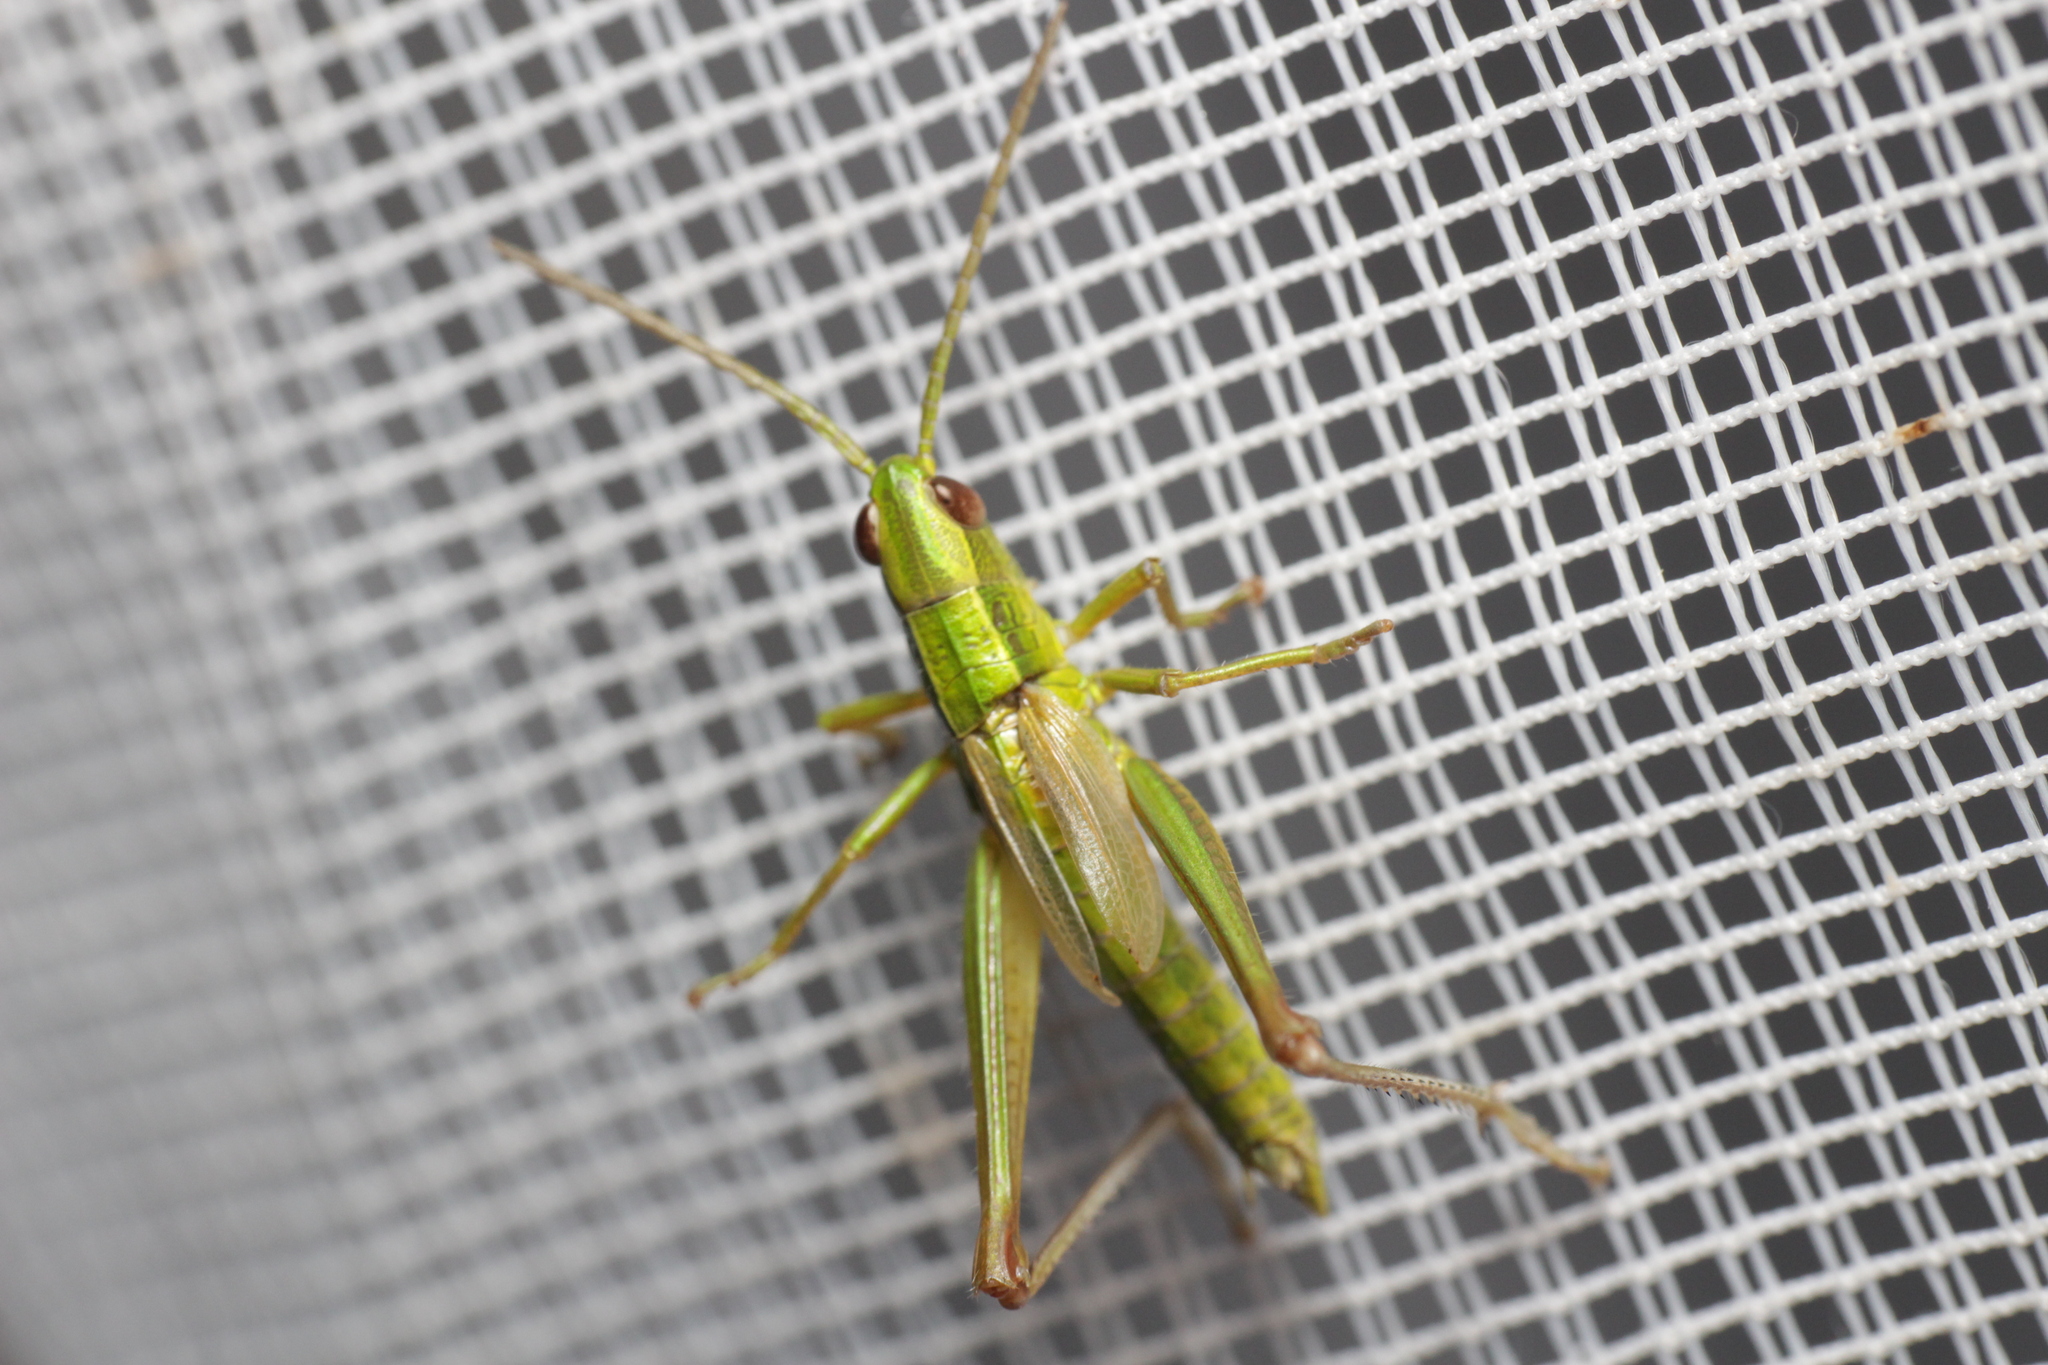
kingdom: Animalia
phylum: Arthropoda
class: Insecta
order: Orthoptera
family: Acrididae
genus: Euthystira
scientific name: Euthystira brachyptera
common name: Small gold grasshopper
